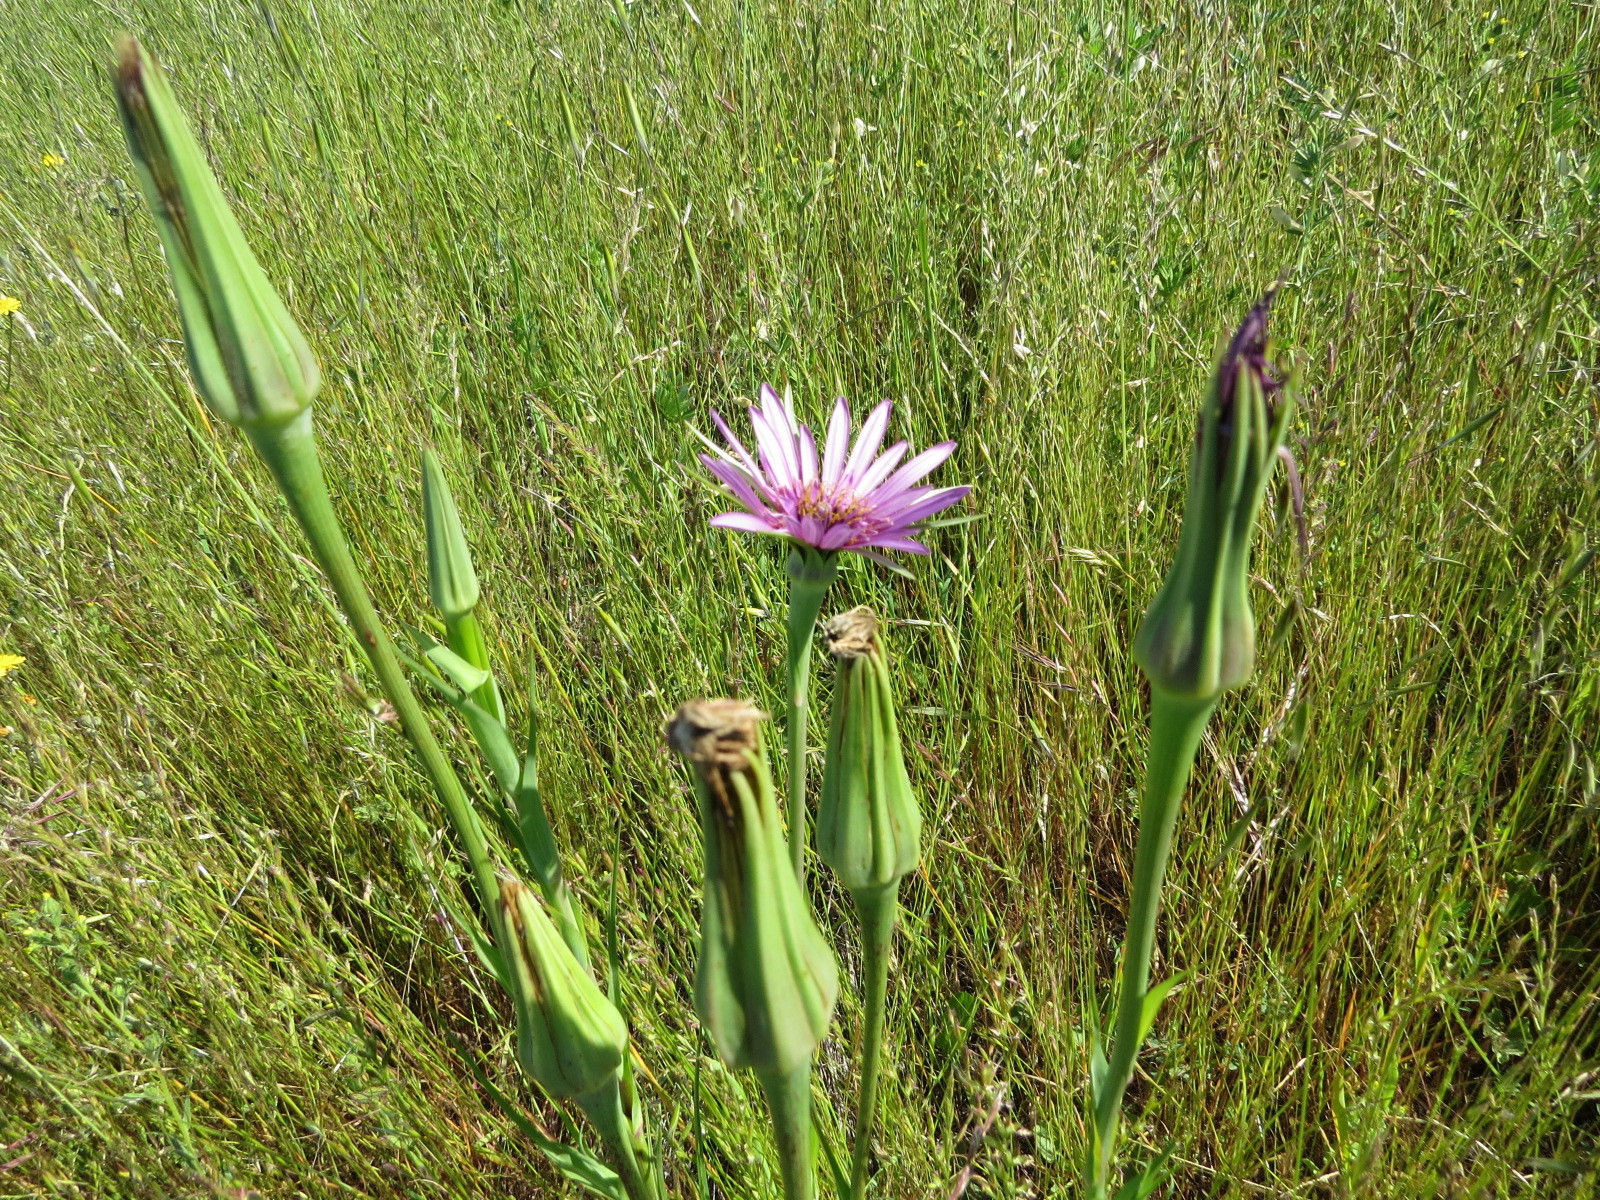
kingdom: Plantae
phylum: Tracheophyta
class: Magnoliopsida
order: Asterales
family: Asteraceae
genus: Tragopogon
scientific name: Tragopogon porrifolius
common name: Salsify
